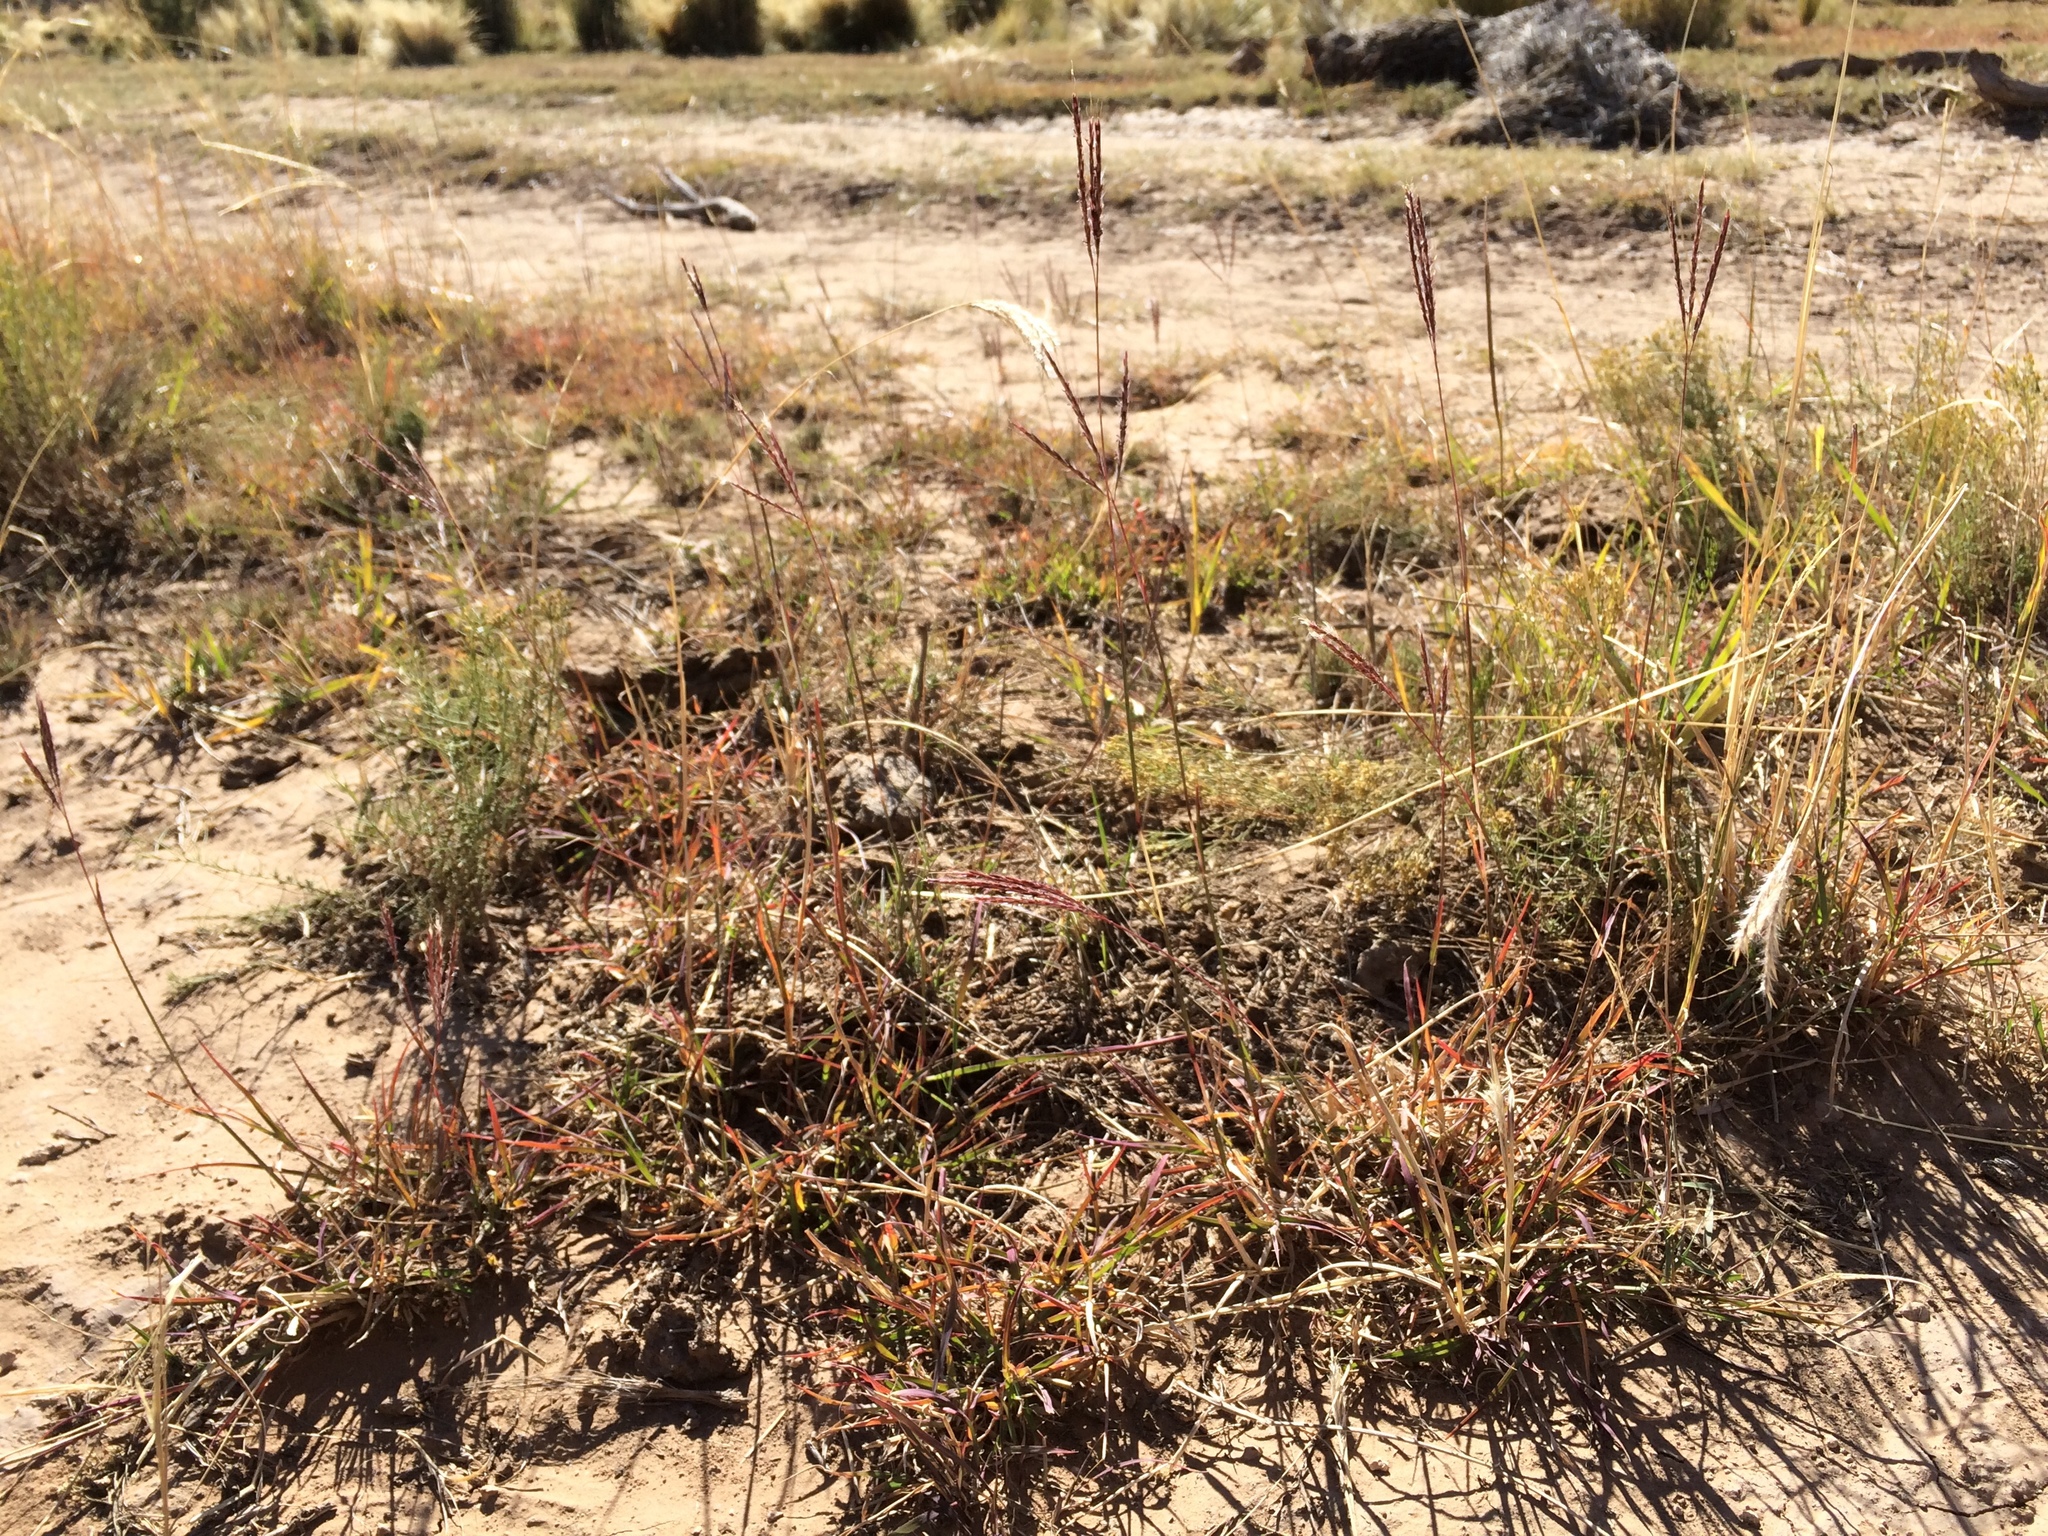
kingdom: Plantae
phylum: Tracheophyta
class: Liliopsida
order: Poales
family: Poaceae
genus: Bothriochloa
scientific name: Bothriochloa ischaemum
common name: Yellow bluestem
